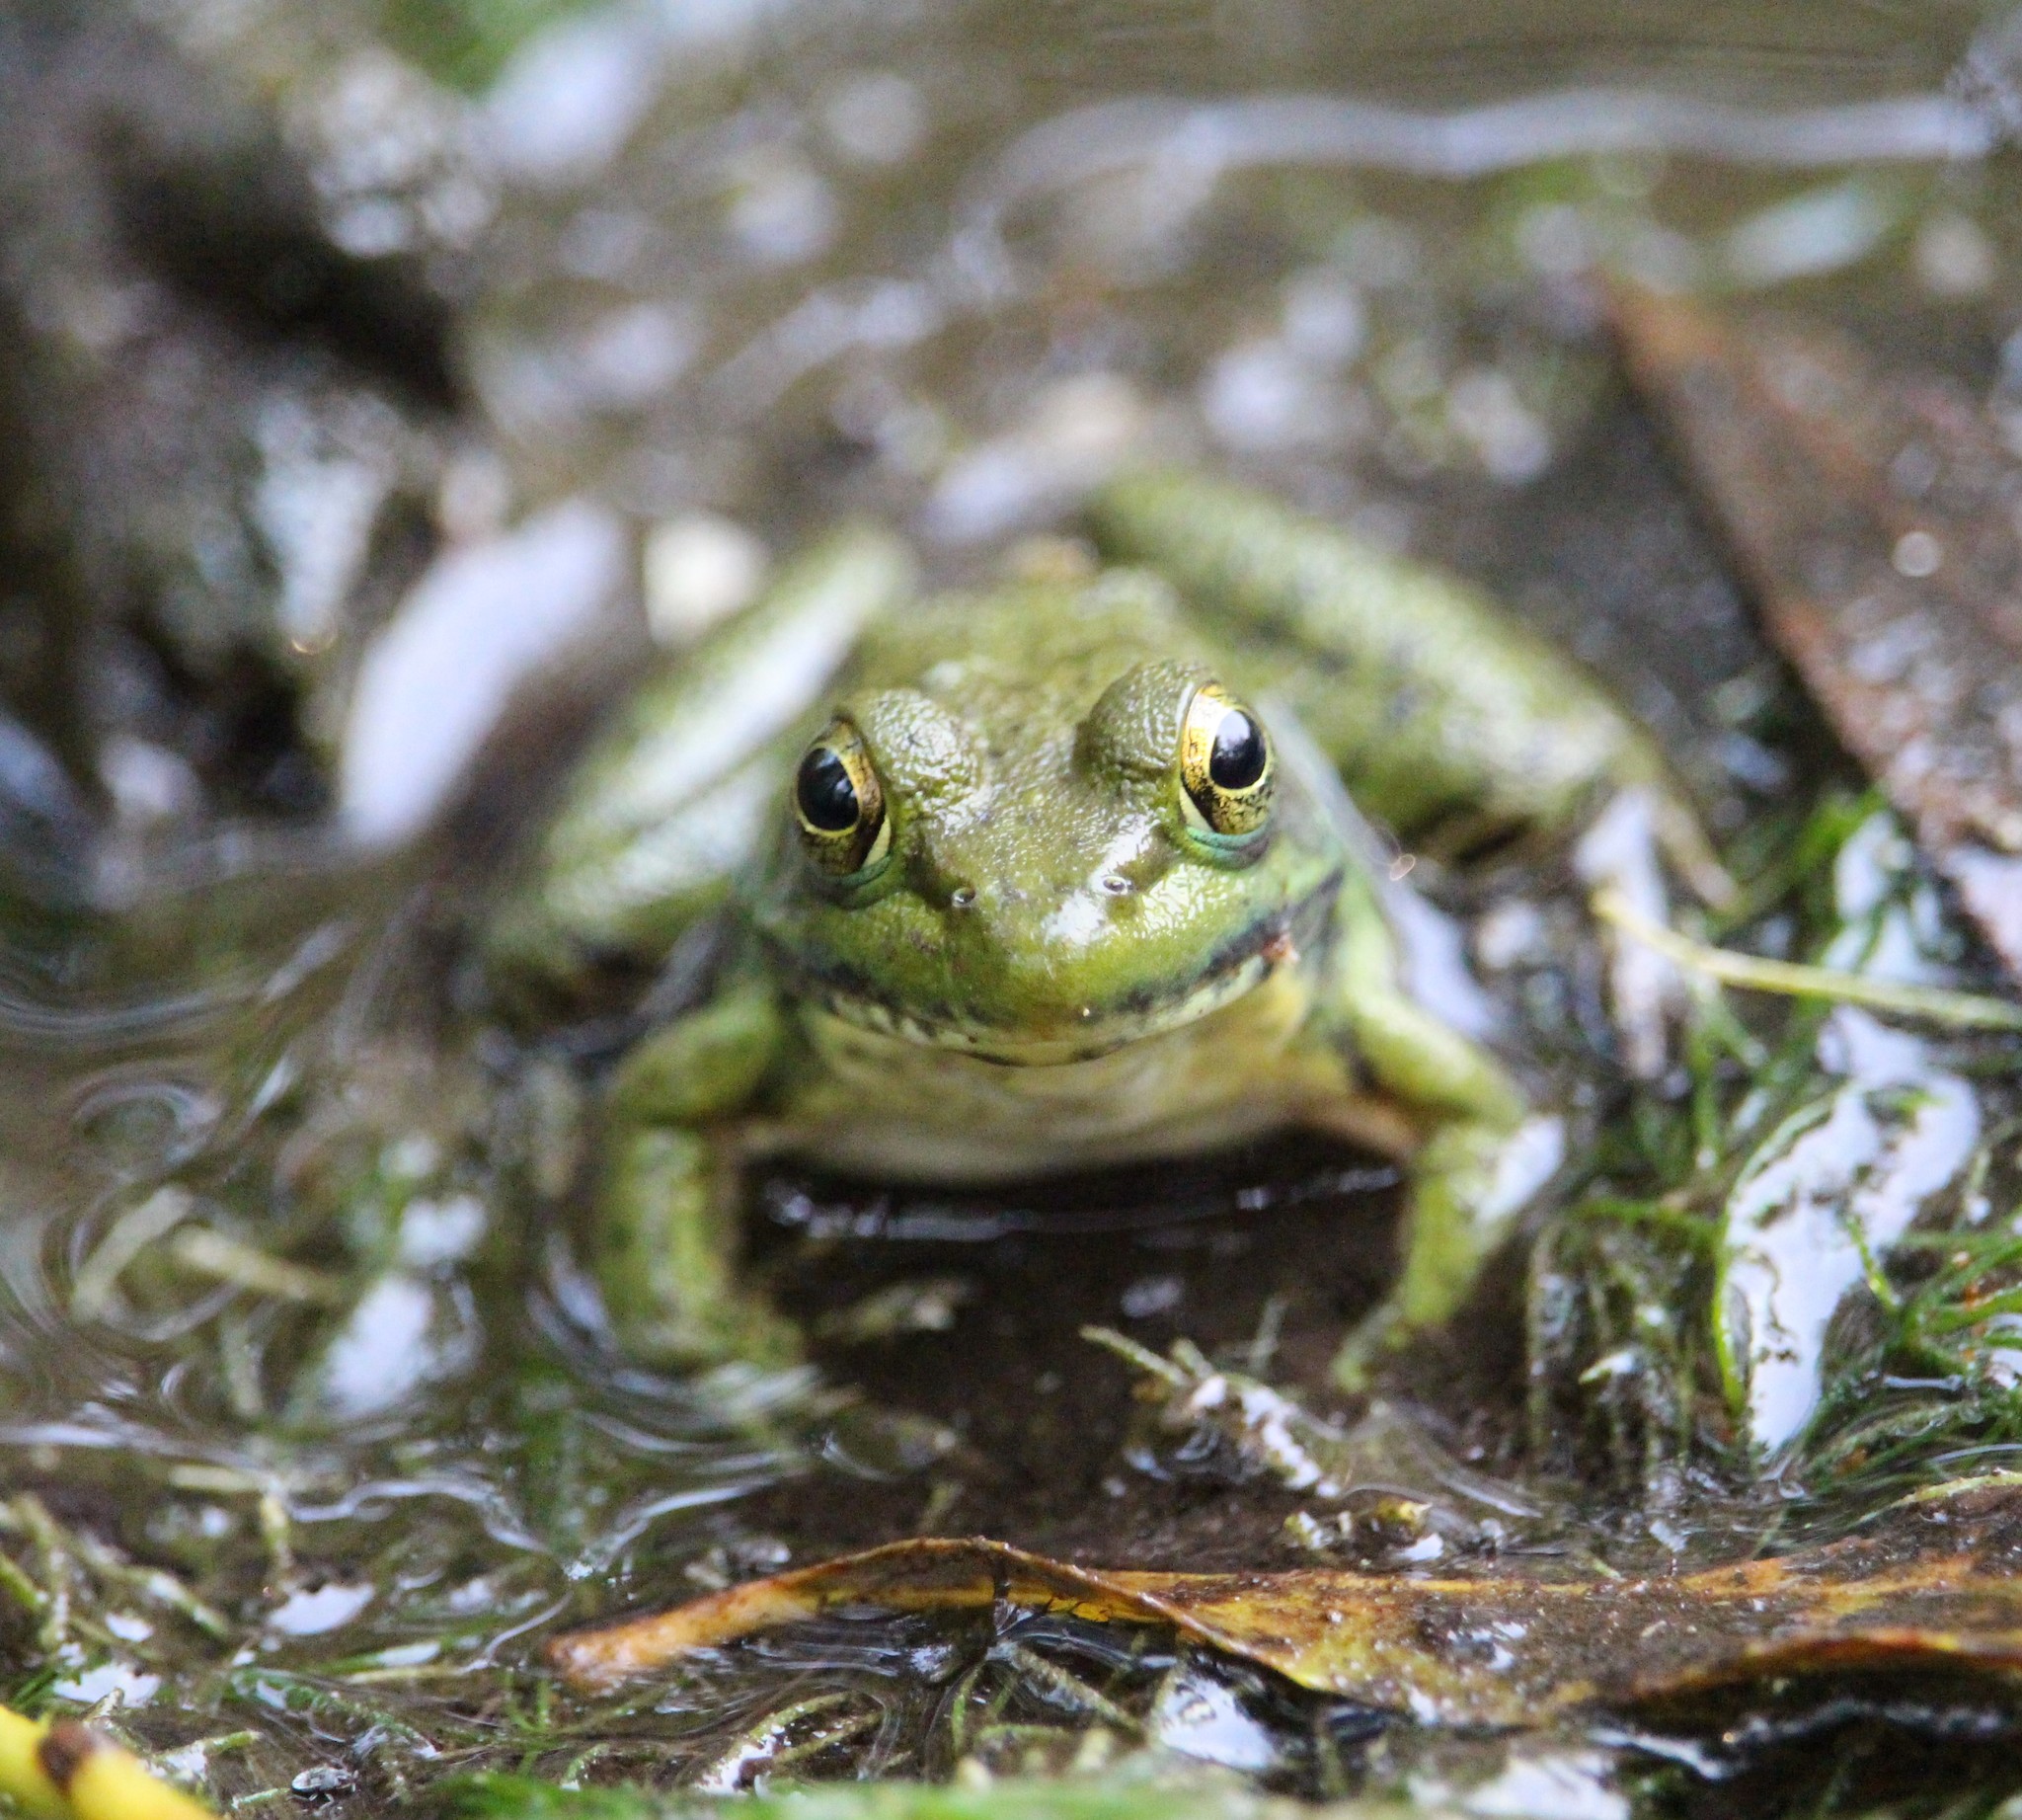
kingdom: Animalia
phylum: Chordata
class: Amphibia
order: Anura
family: Ranidae
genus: Lithobates
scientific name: Lithobates clamitans
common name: Green frog
